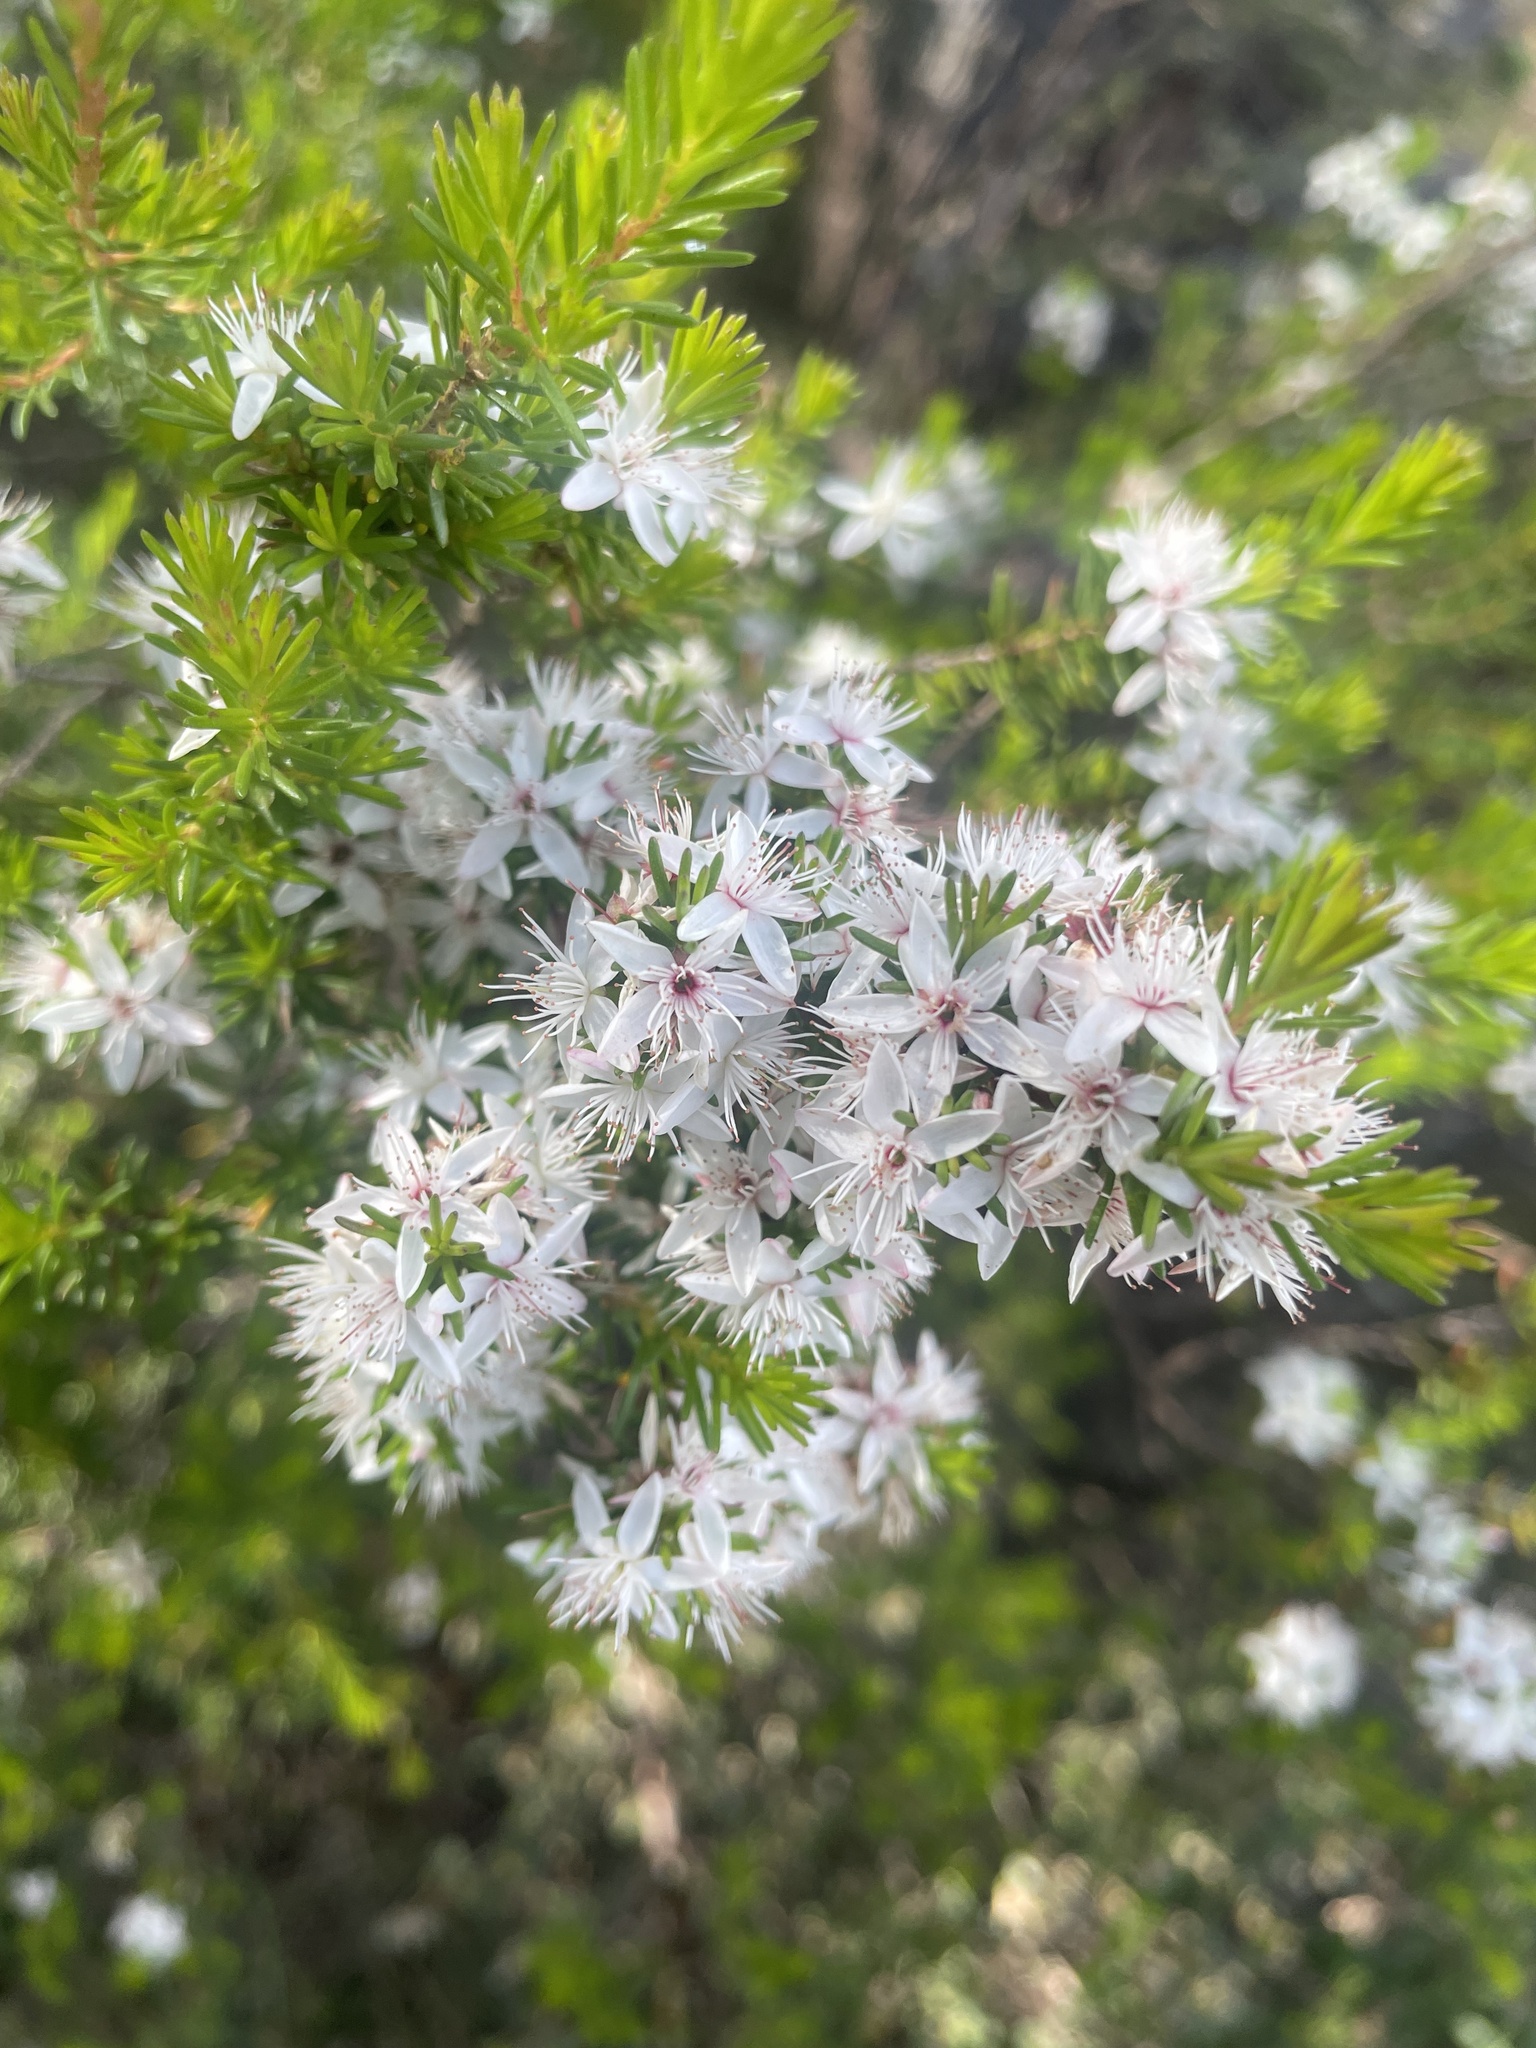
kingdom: Plantae
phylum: Tracheophyta
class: Magnoliopsida
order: Myrtales
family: Myrtaceae
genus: Calytrix
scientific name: Calytrix alpestris
